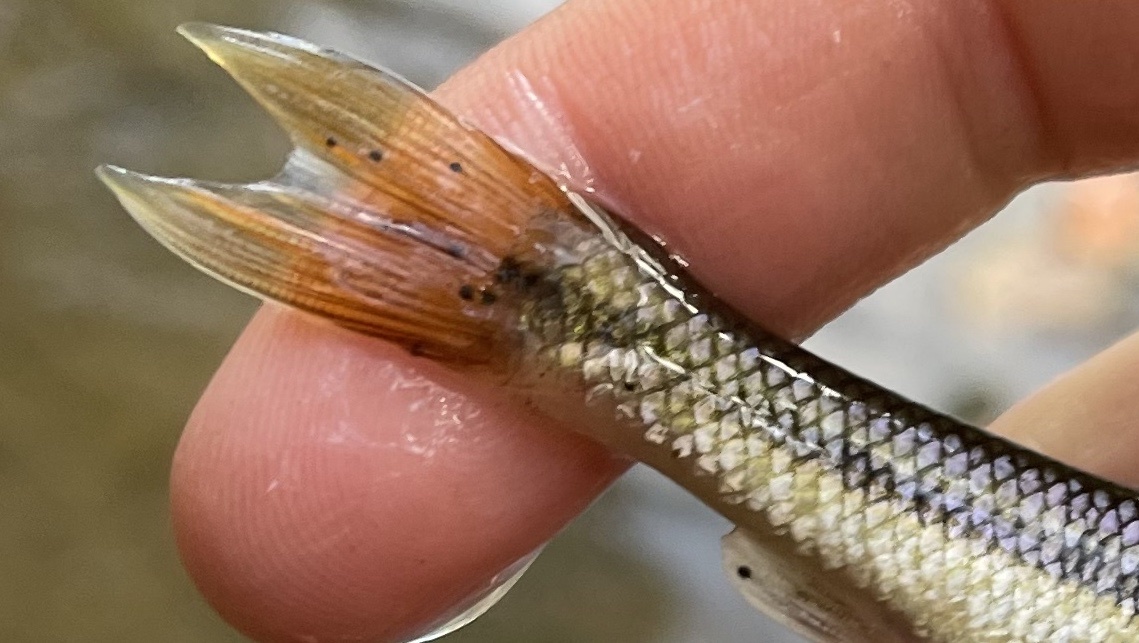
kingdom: Animalia
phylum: Platyhelminthes
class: Trematoda
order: Diplostomida
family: Diplostomidae
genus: Neascus
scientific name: Neascus
